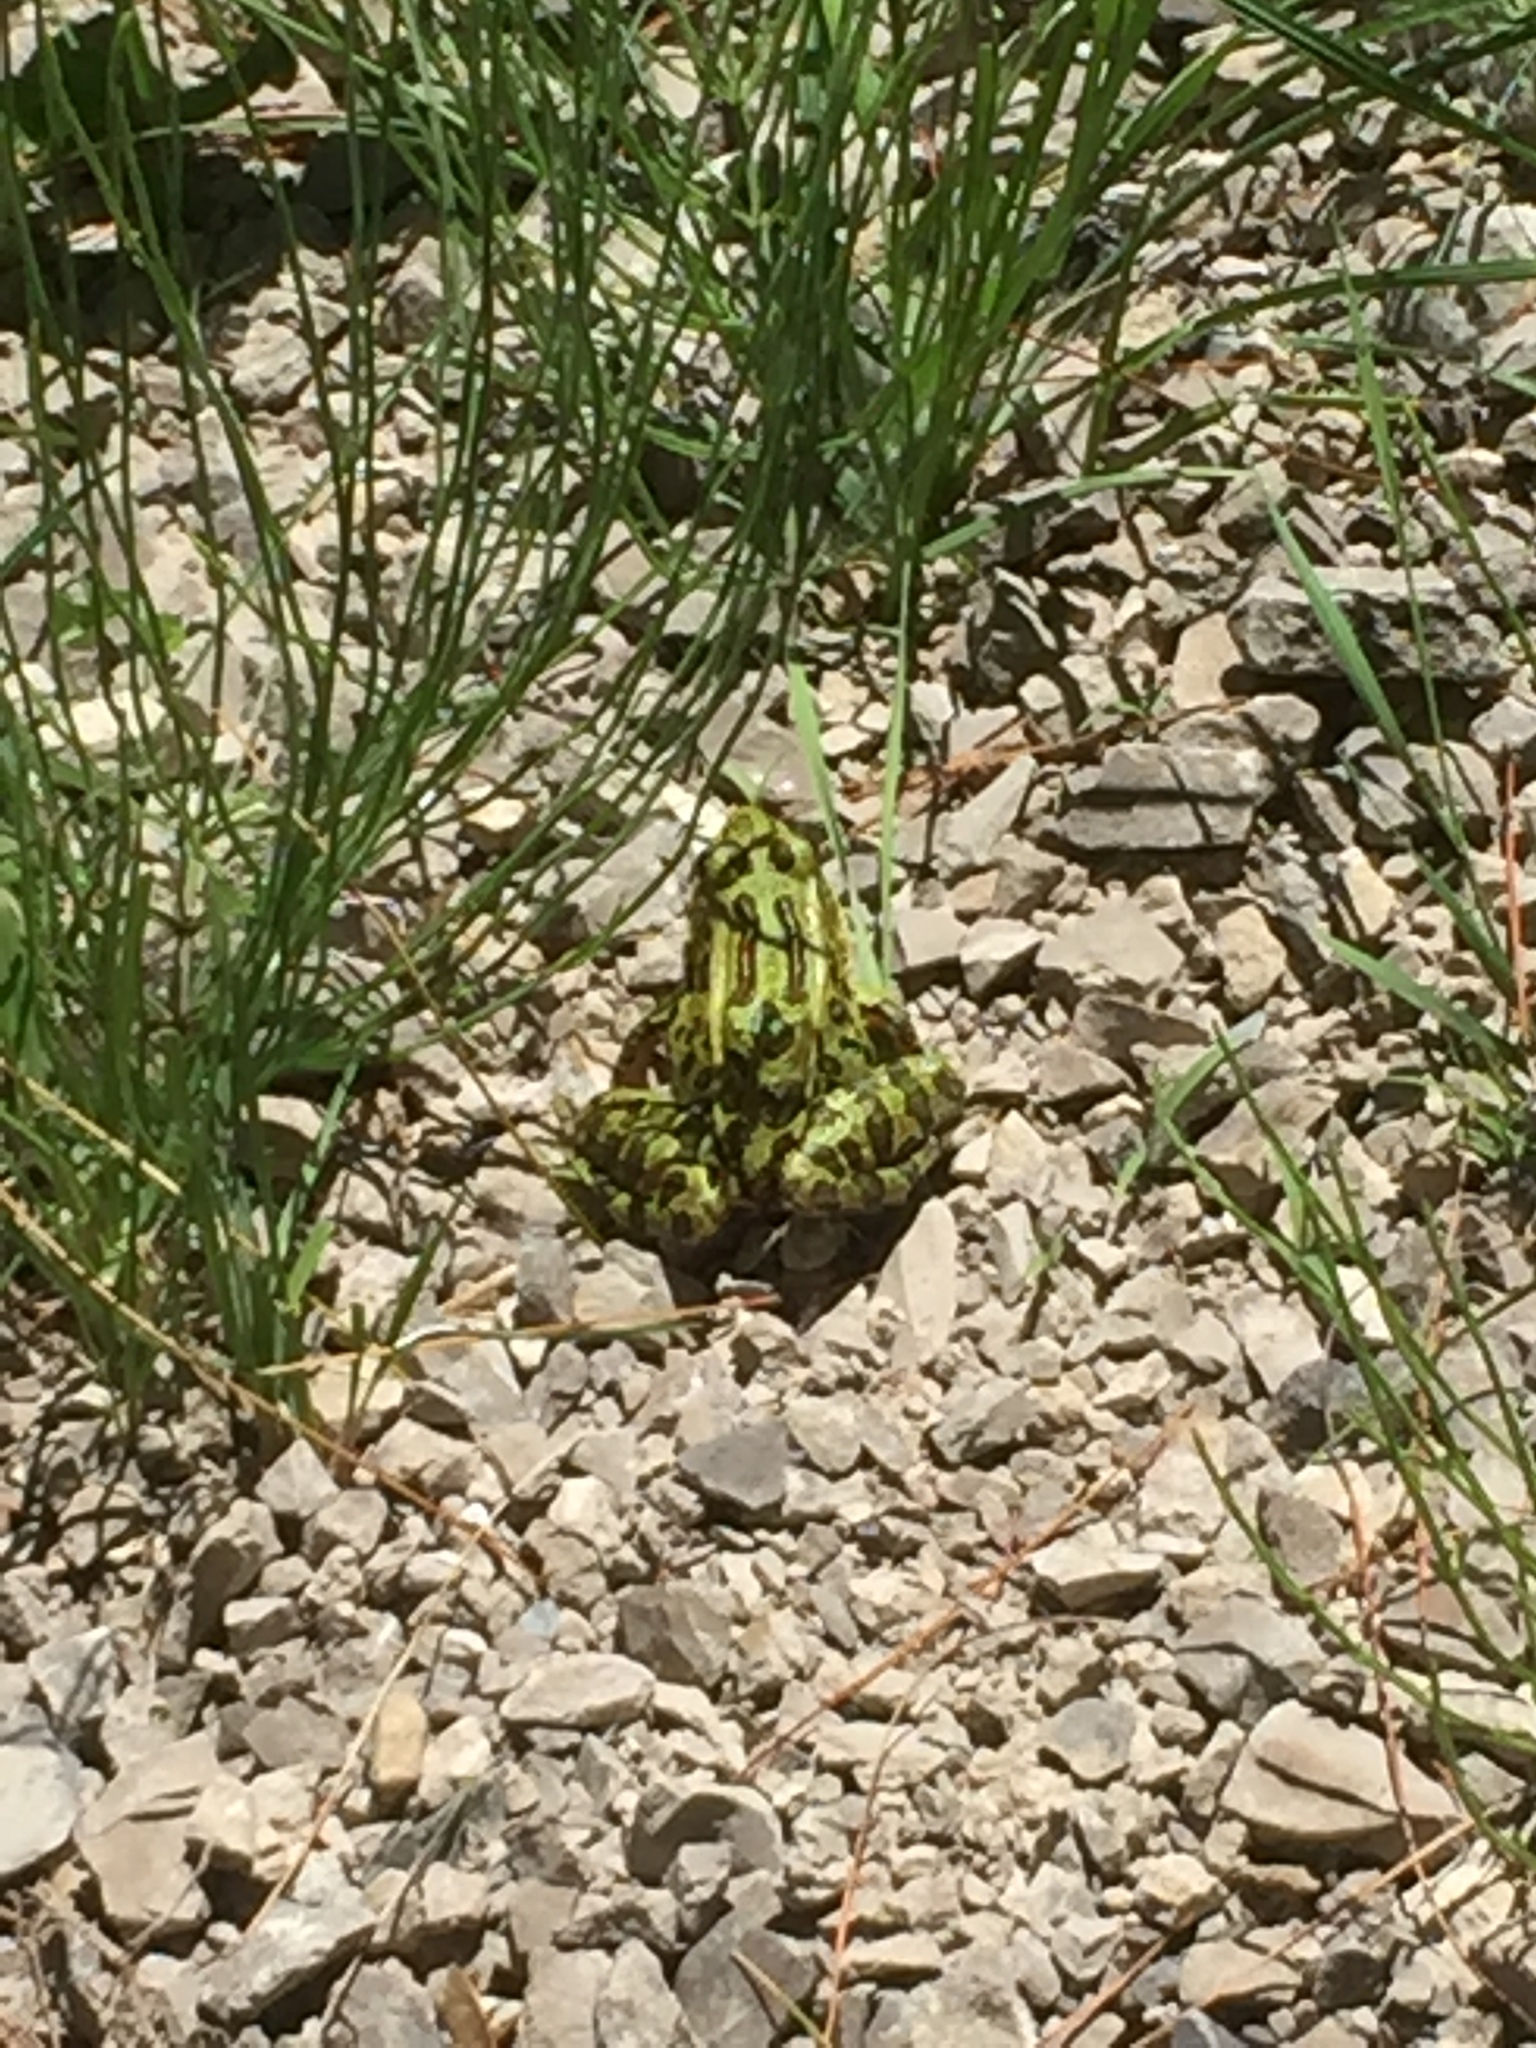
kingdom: Animalia
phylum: Chordata
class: Amphibia
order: Anura
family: Ranidae
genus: Lithobates
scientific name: Lithobates pipiens
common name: Northern leopard frog
